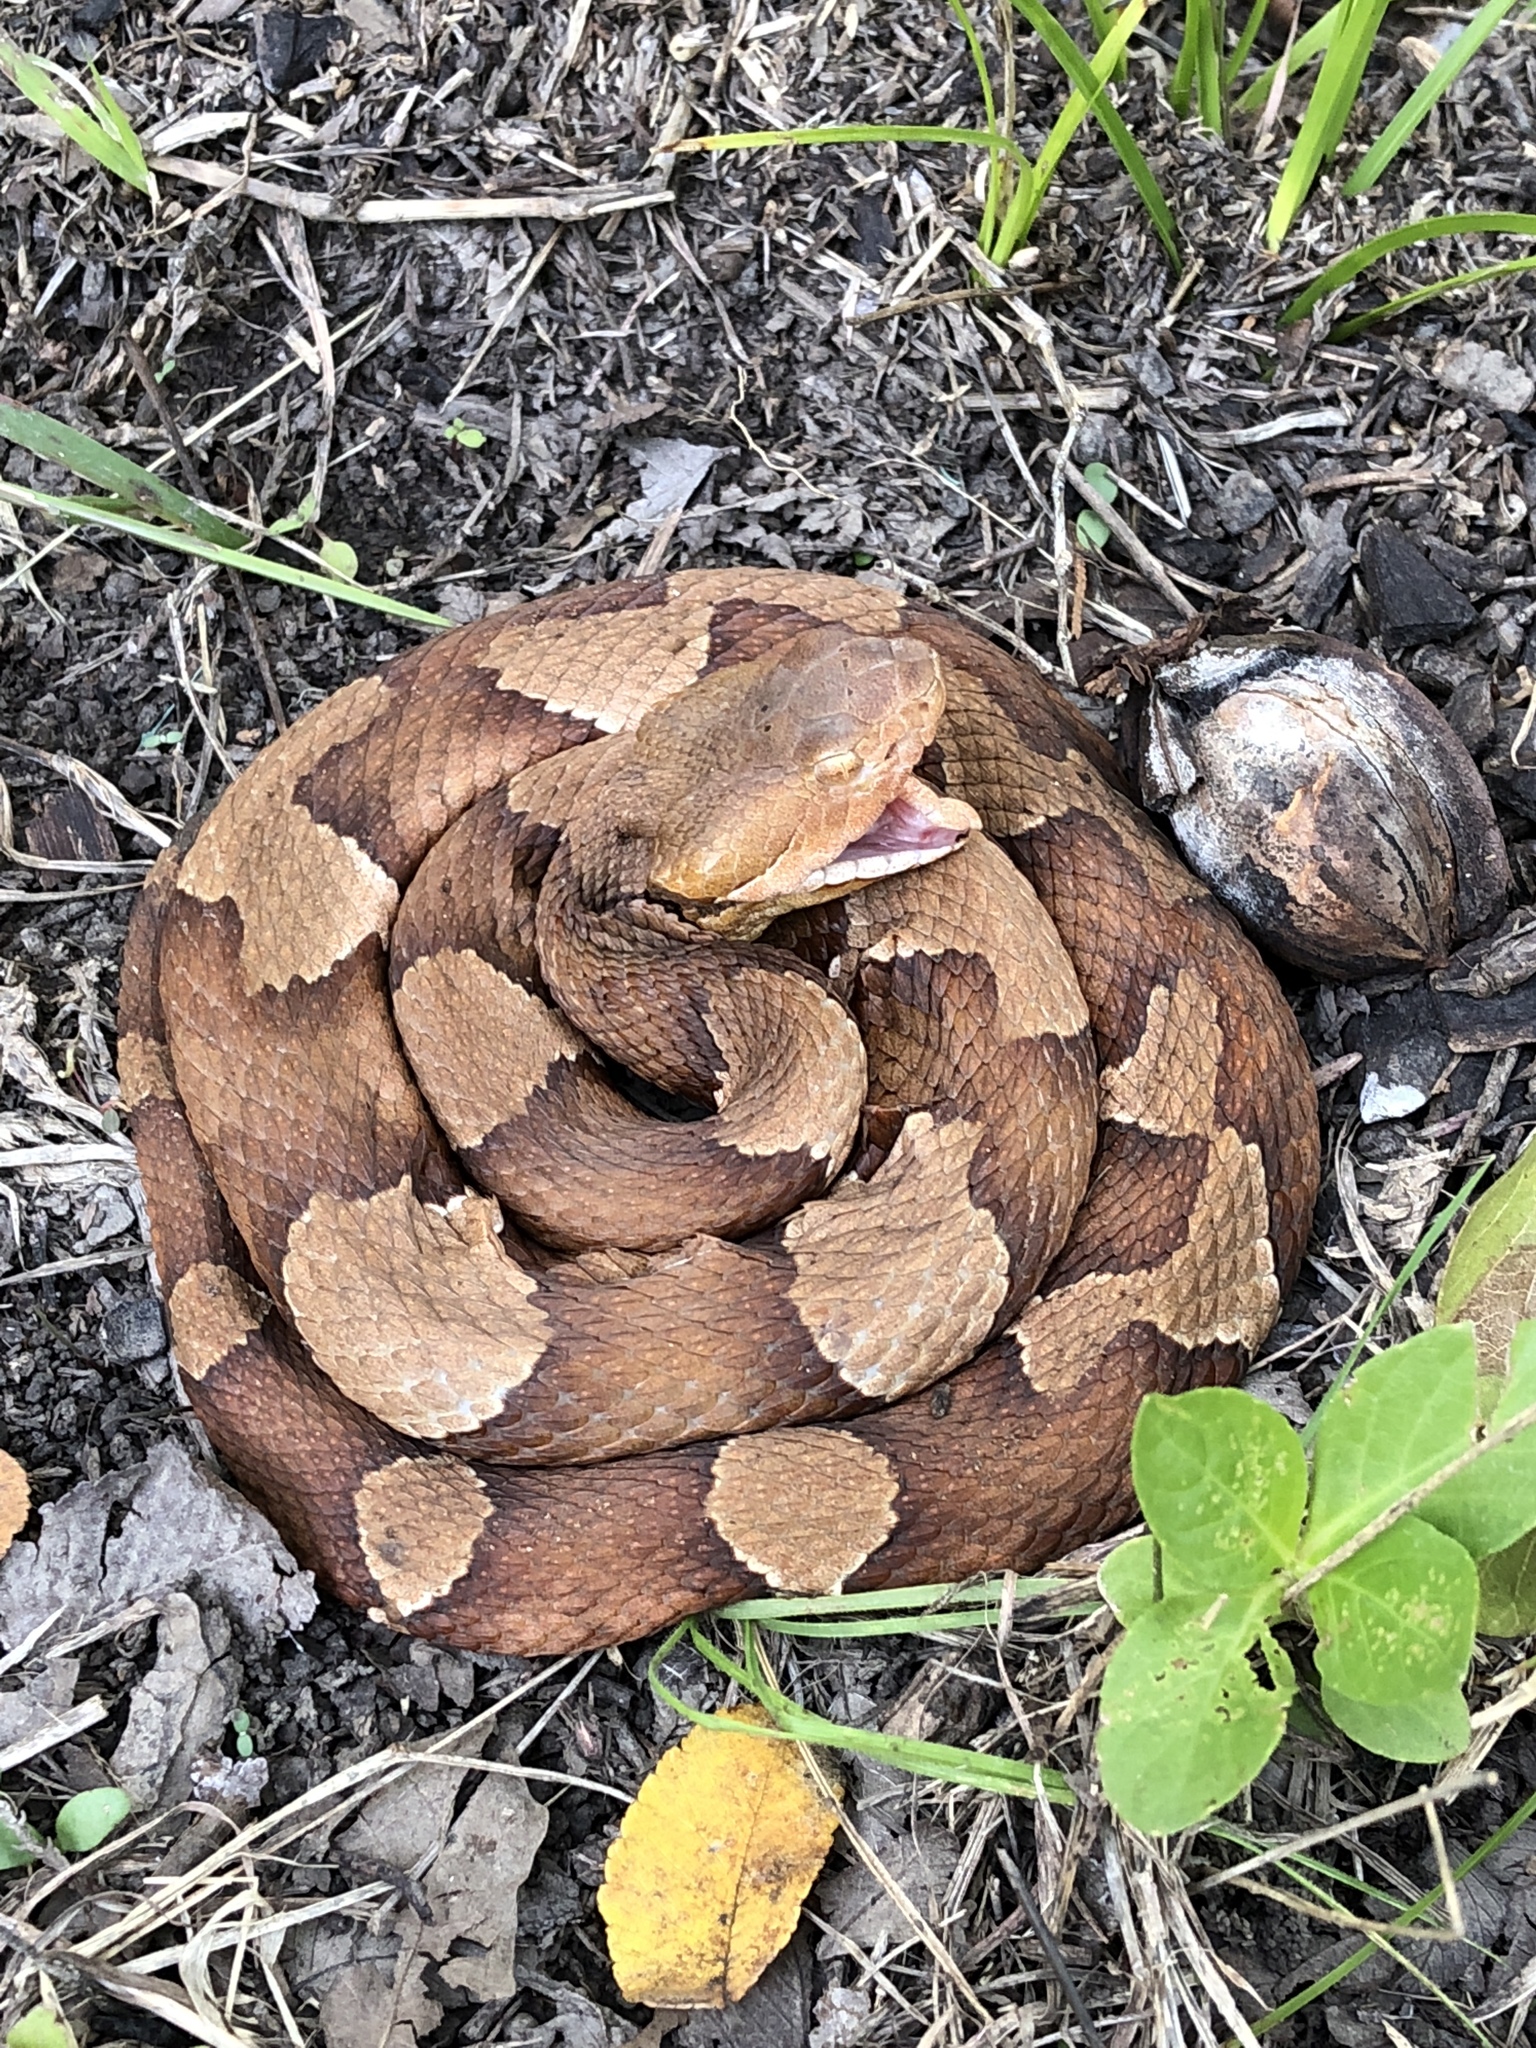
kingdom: Animalia
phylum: Chordata
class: Squamata
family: Viperidae
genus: Agkistrodon
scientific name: Agkistrodon laticinctus
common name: Broad-banded copperhead
